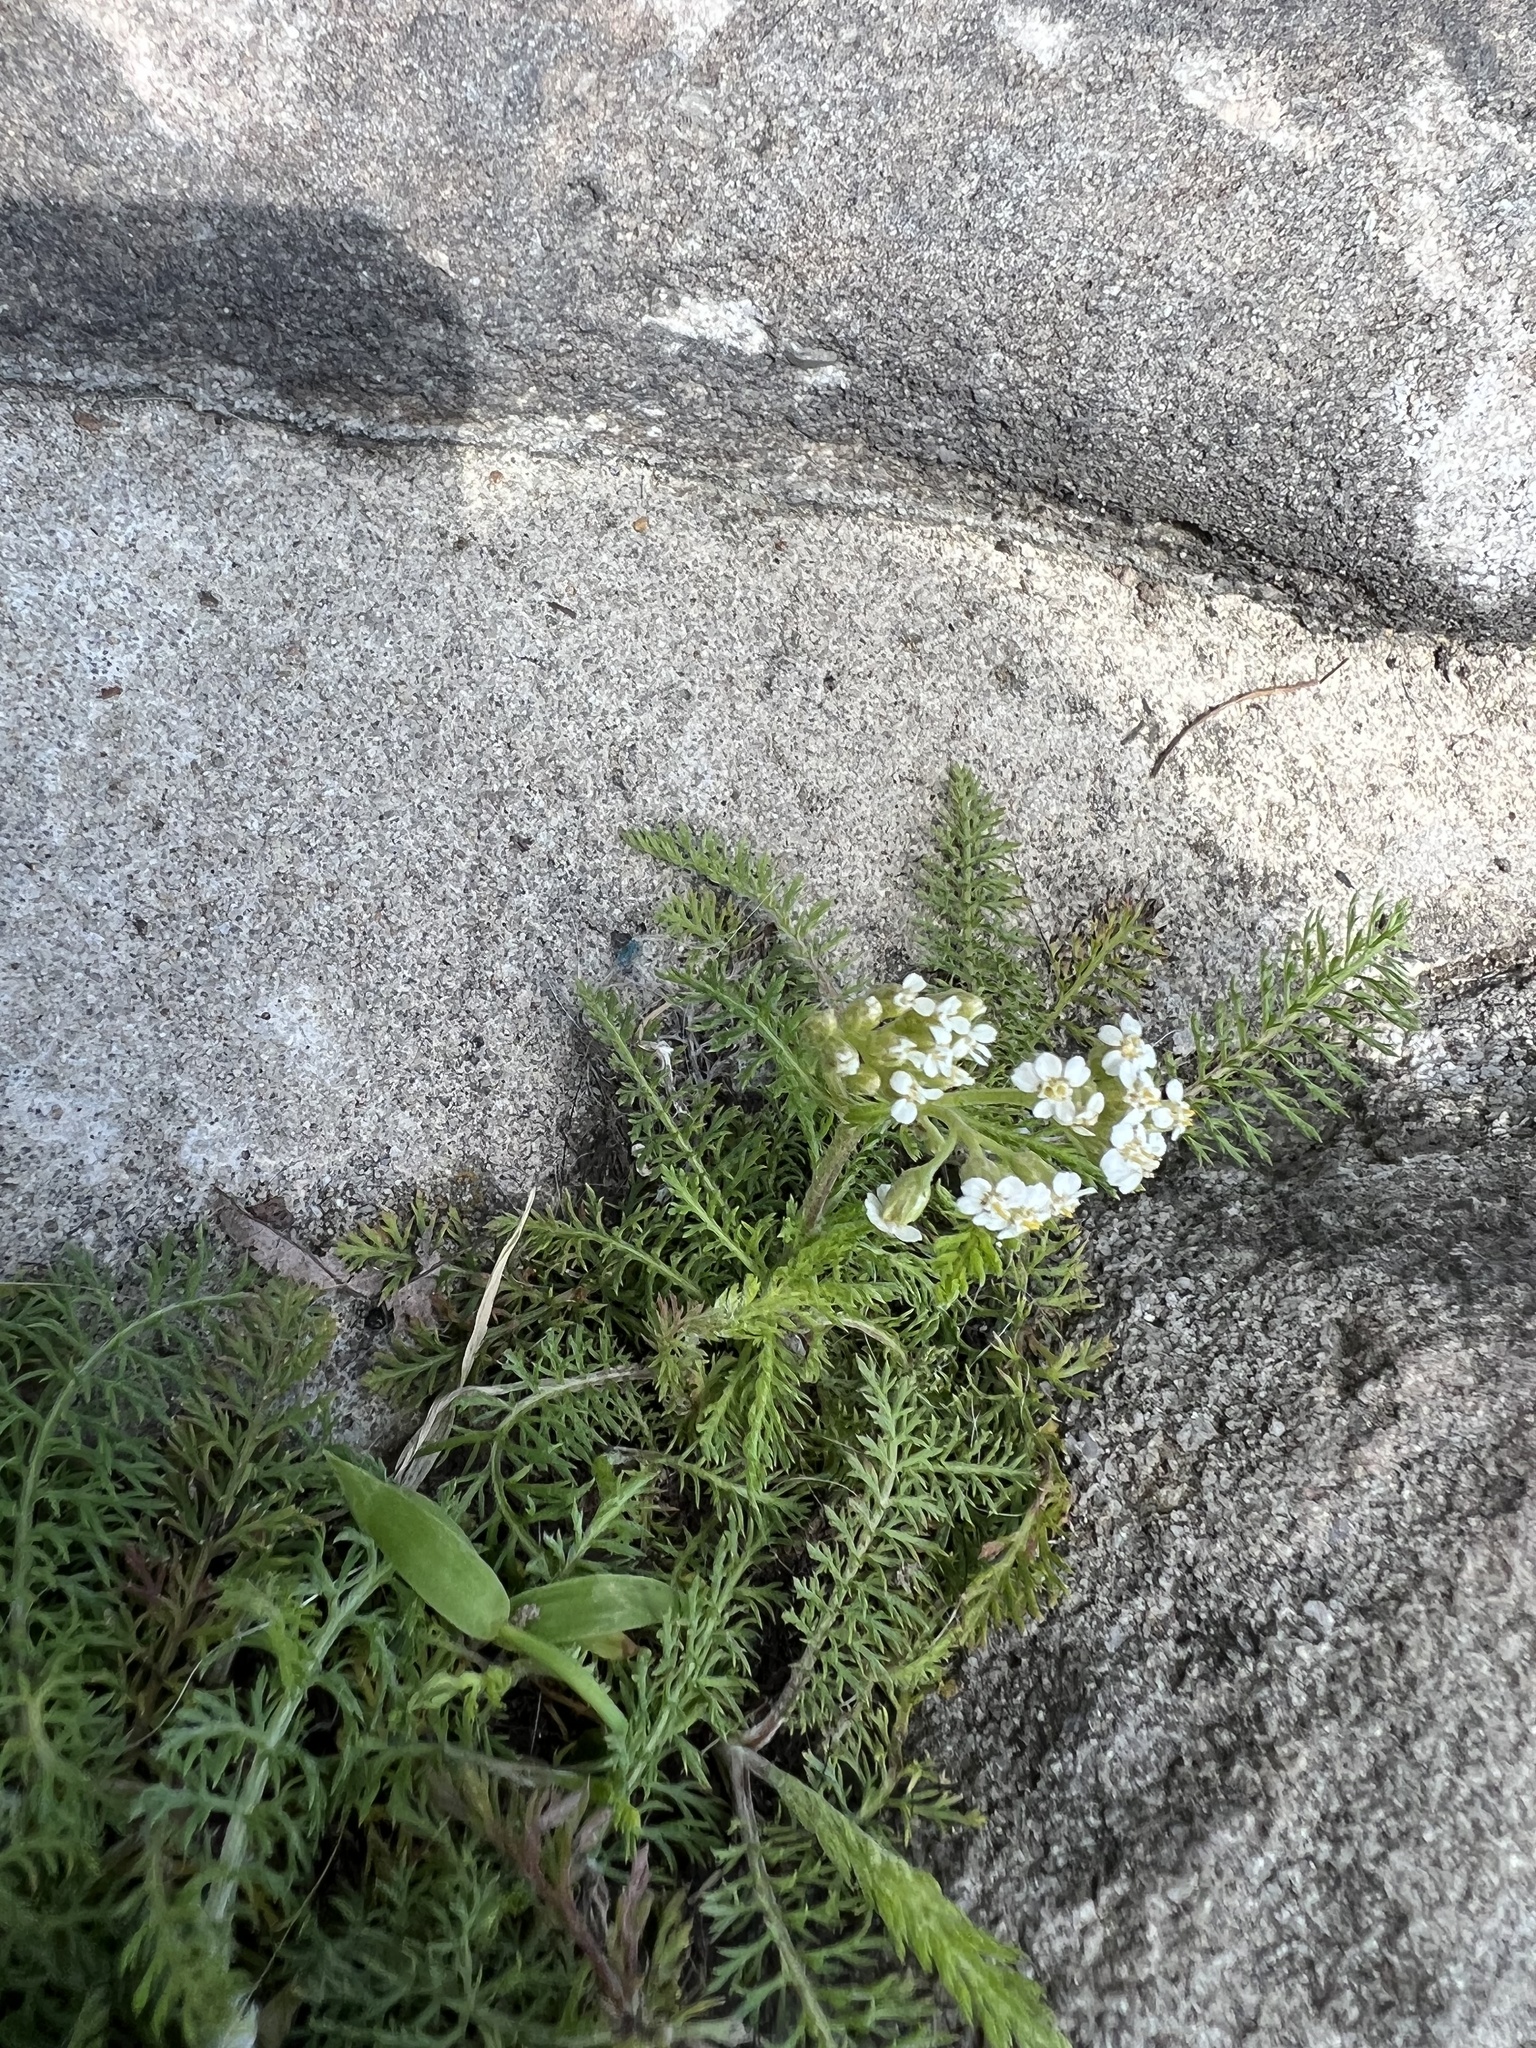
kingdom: Plantae
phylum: Tracheophyta
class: Magnoliopsida
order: Asterales
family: Asteraceae
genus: Achillea
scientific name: Achillea millefolium
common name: Yarrow
